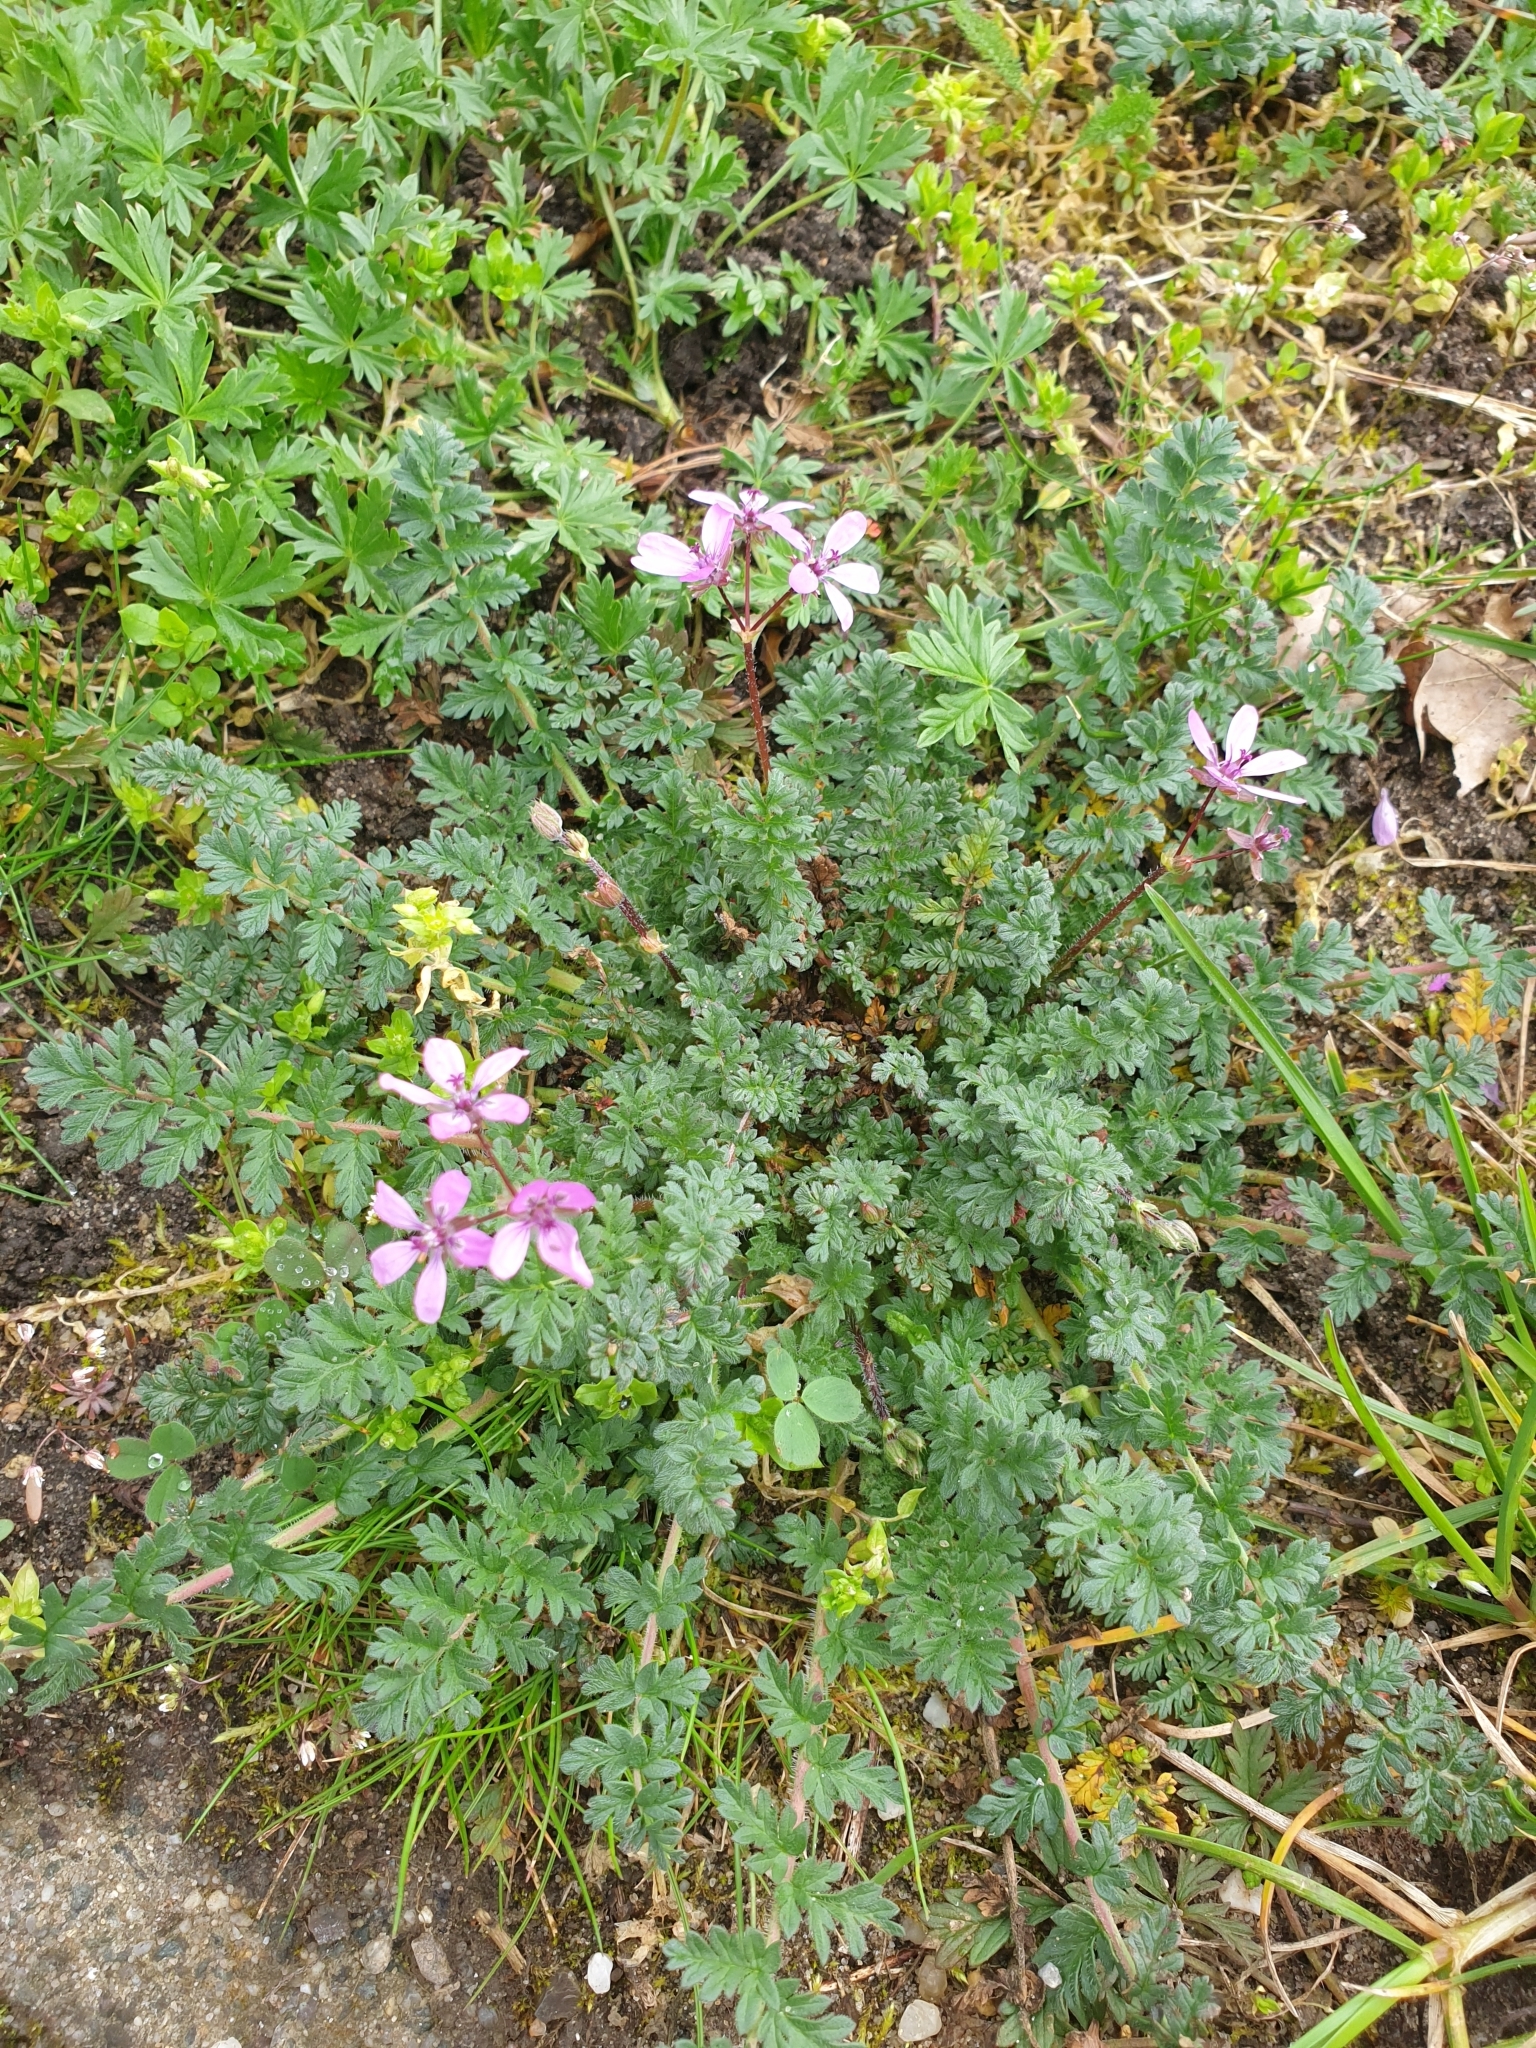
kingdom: Plantae
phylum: Tracheophyta
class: Magnoliopsida
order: Geraniales
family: Geraniaceae
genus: Erodium
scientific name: Erodium cicutarium
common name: Common stork's-bill
